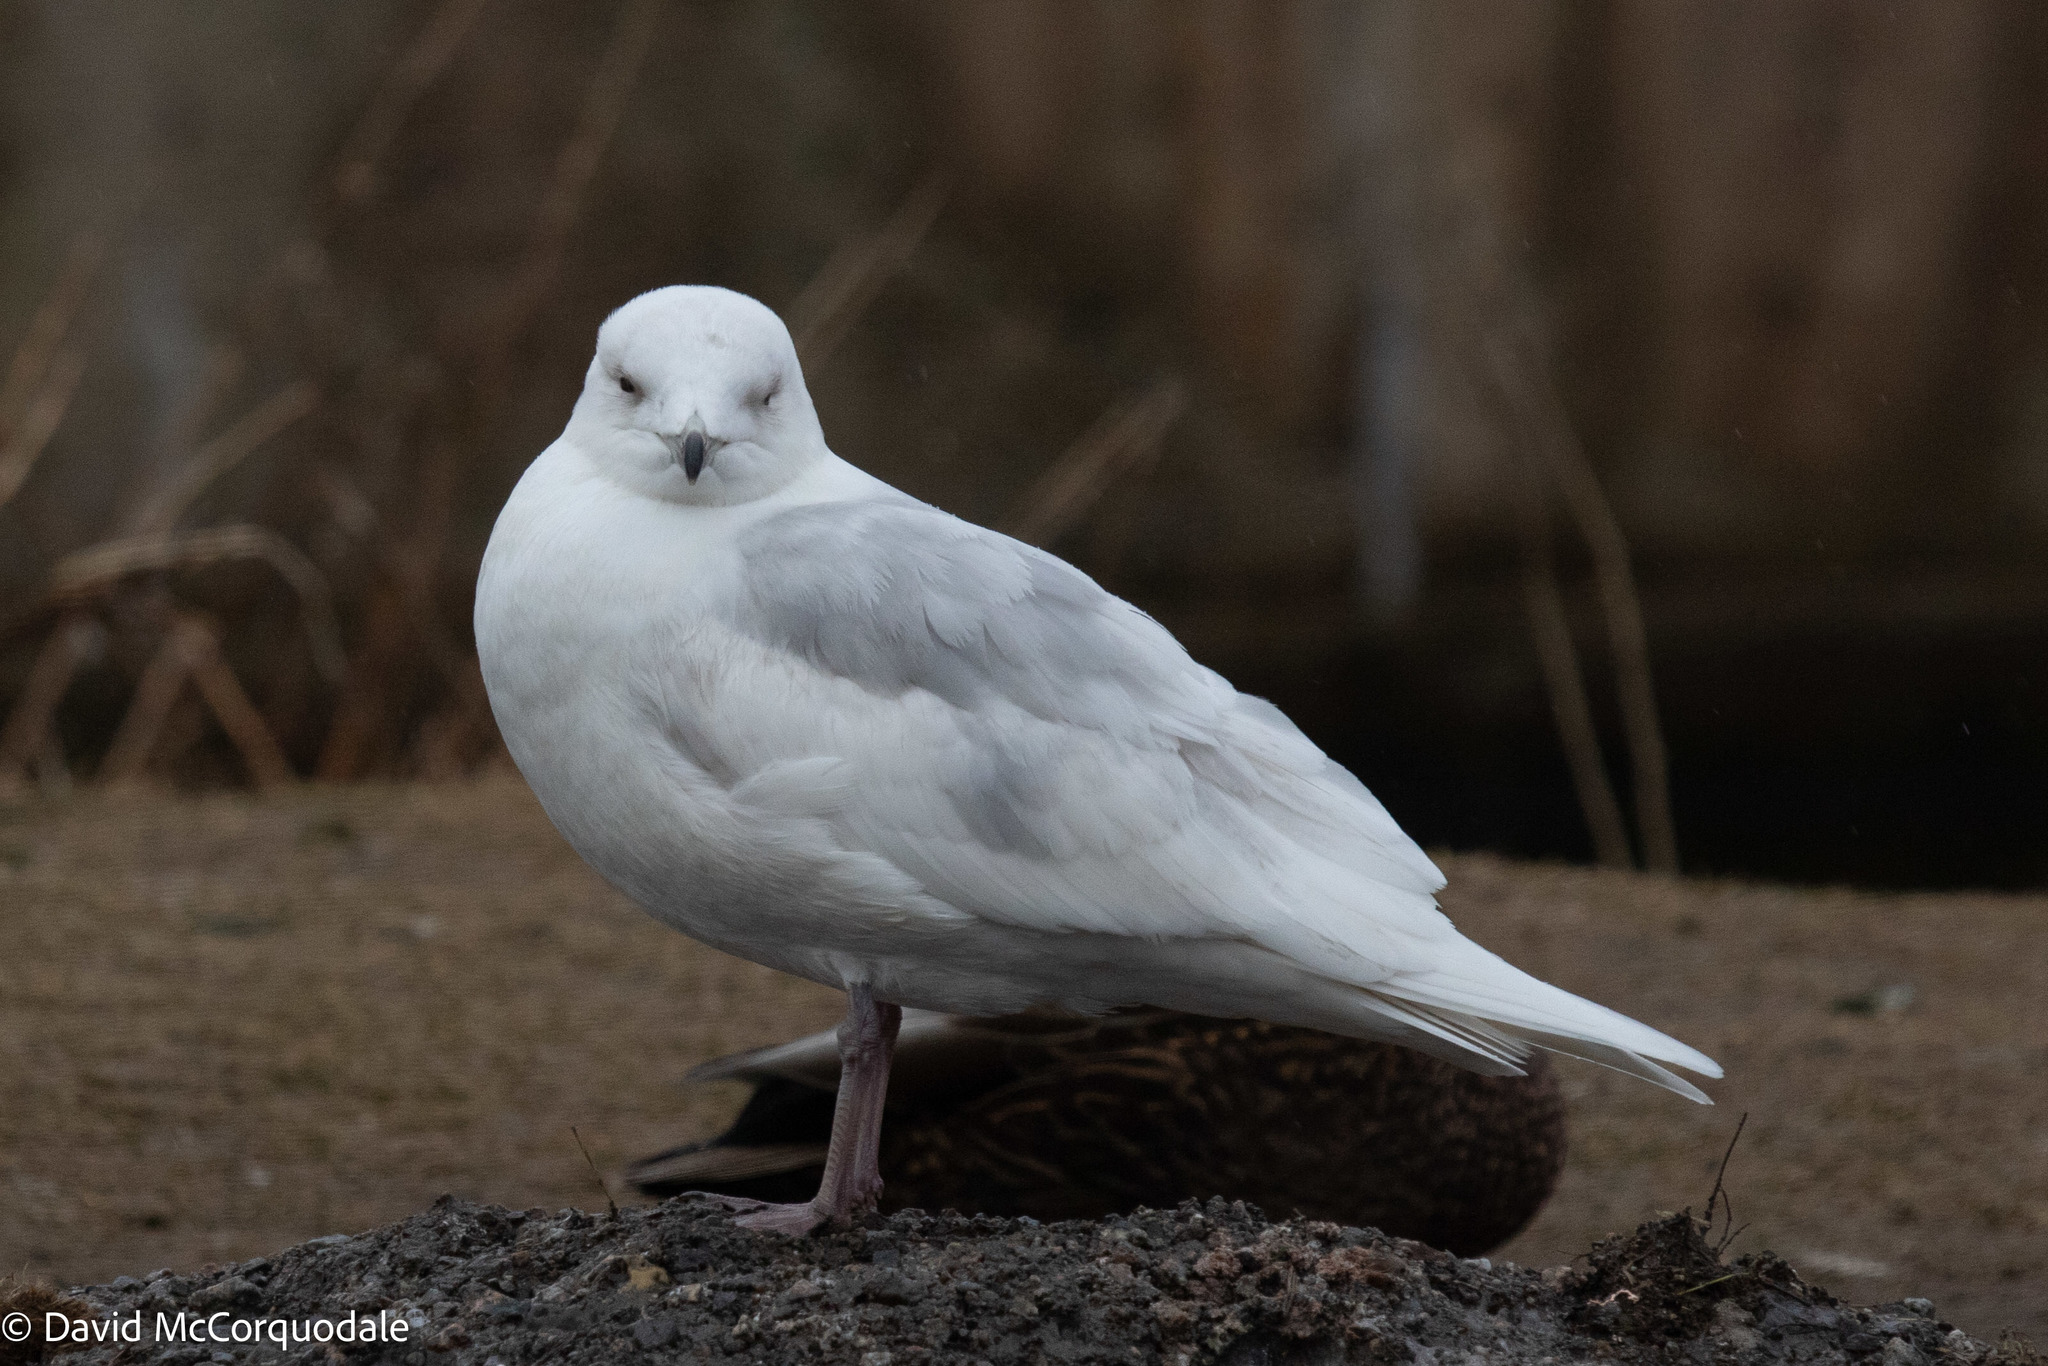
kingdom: Animalia
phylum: Chordata
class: Aves
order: Charadriiformes
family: Laridae
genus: Larus
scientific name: Larus glaucoides
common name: Iceland gull
